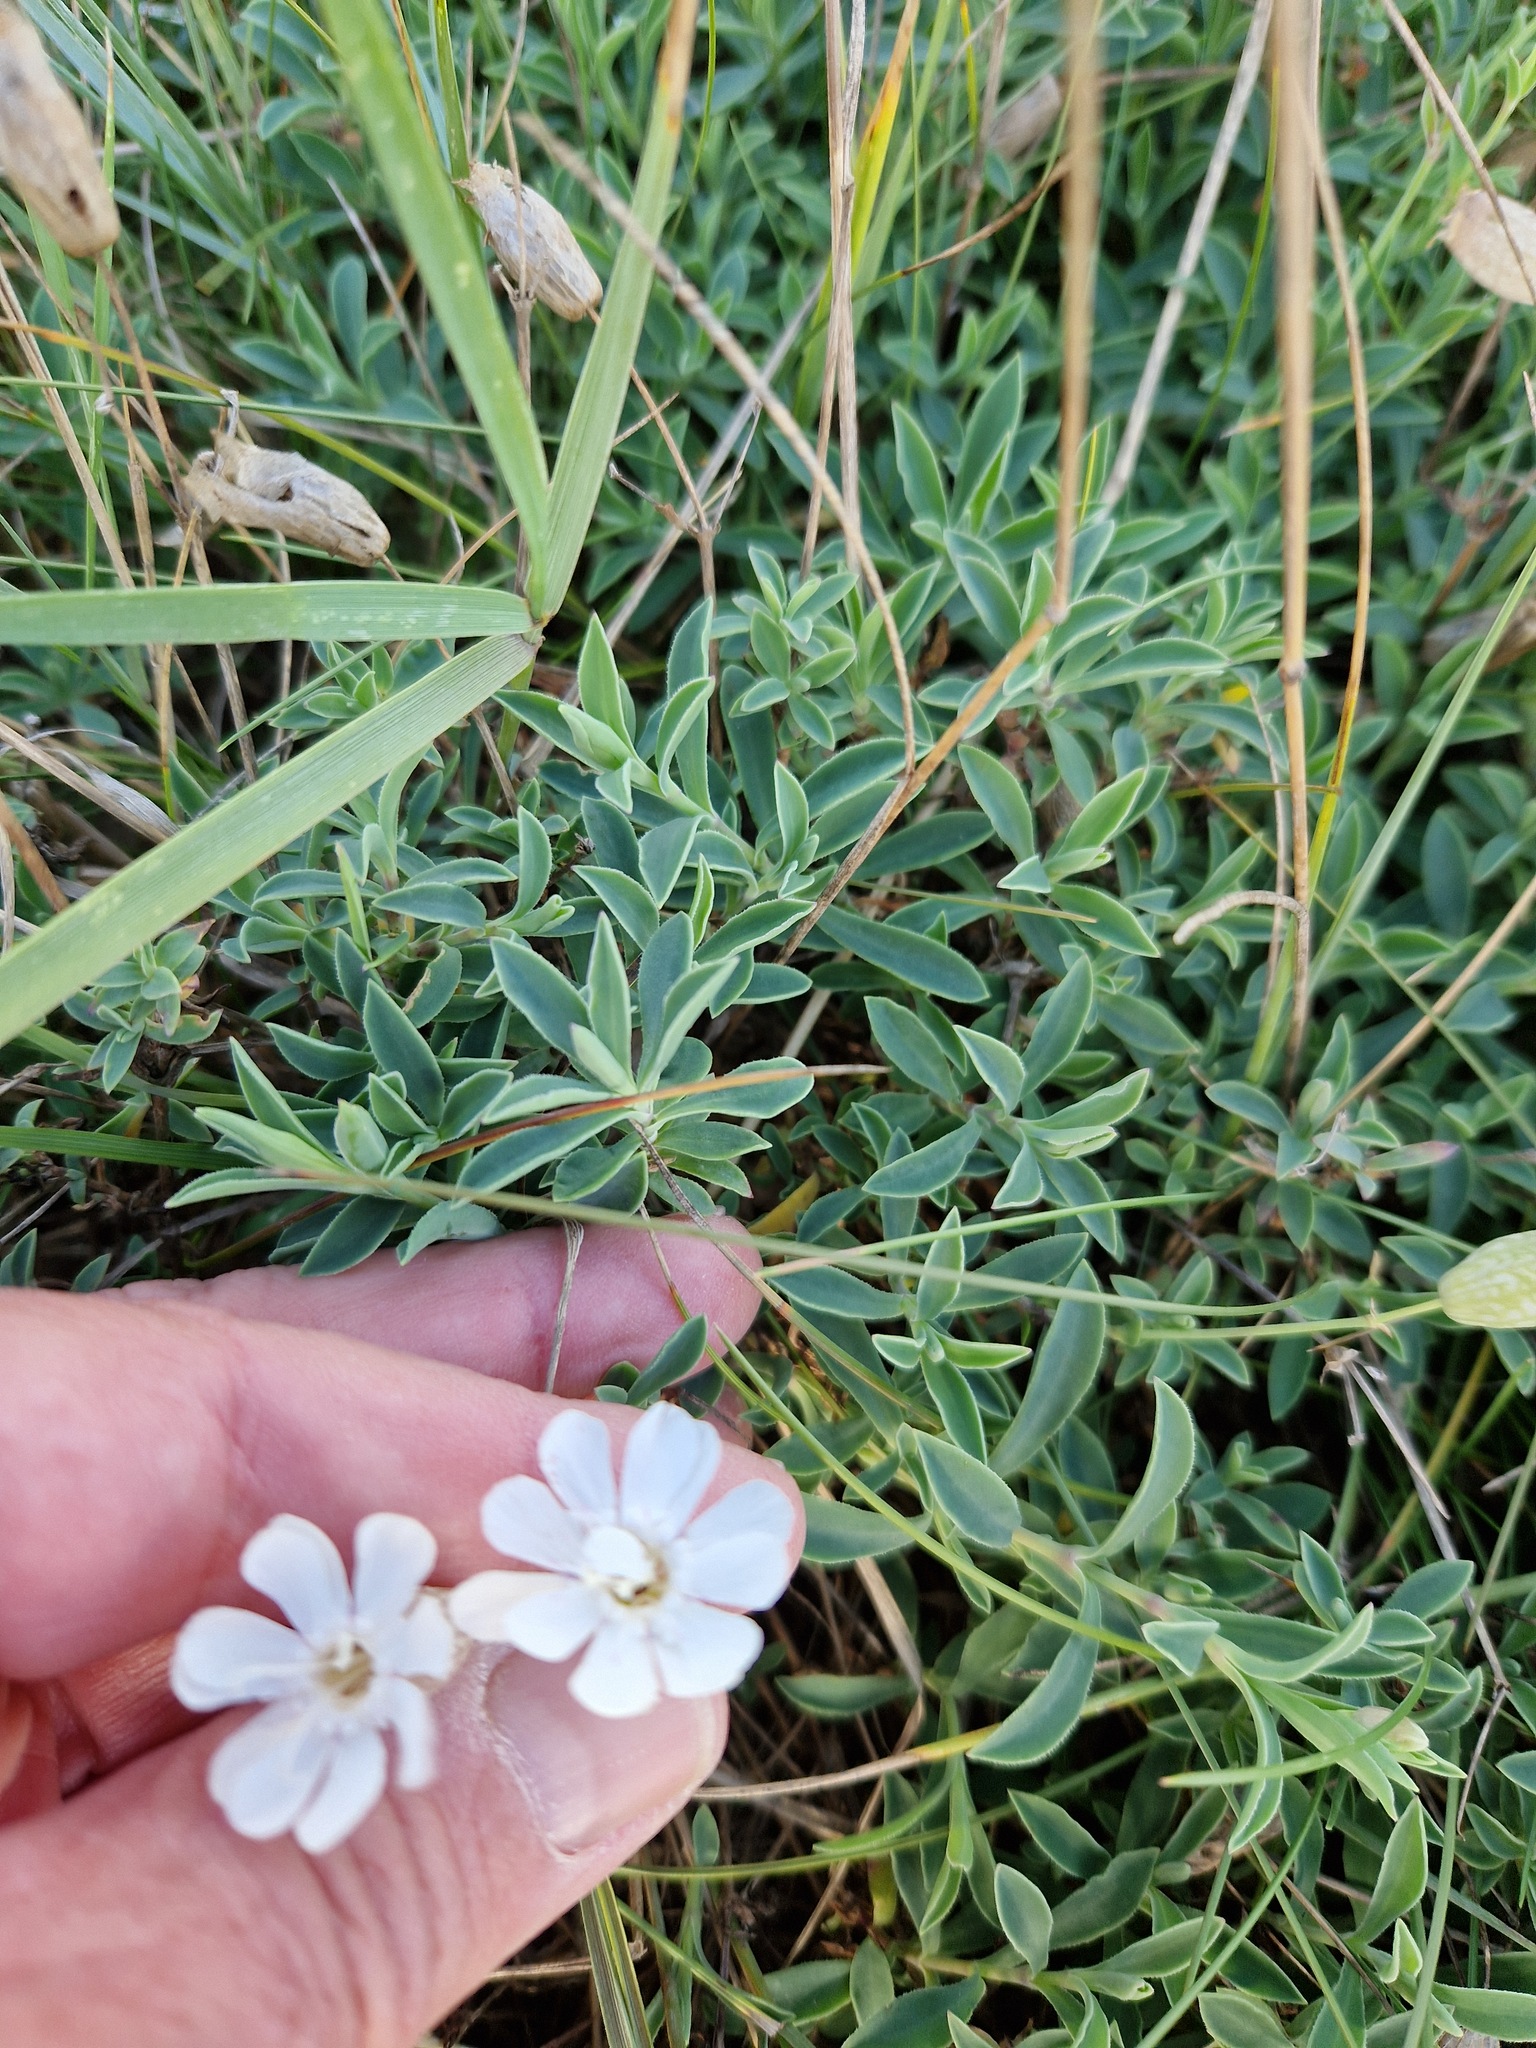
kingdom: Plantae
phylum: Tracheophyta
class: Magnoliopsida
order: Caryophyllales
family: Caryophyllaceae
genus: Silene
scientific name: Silene uniflora
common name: Sea campion
